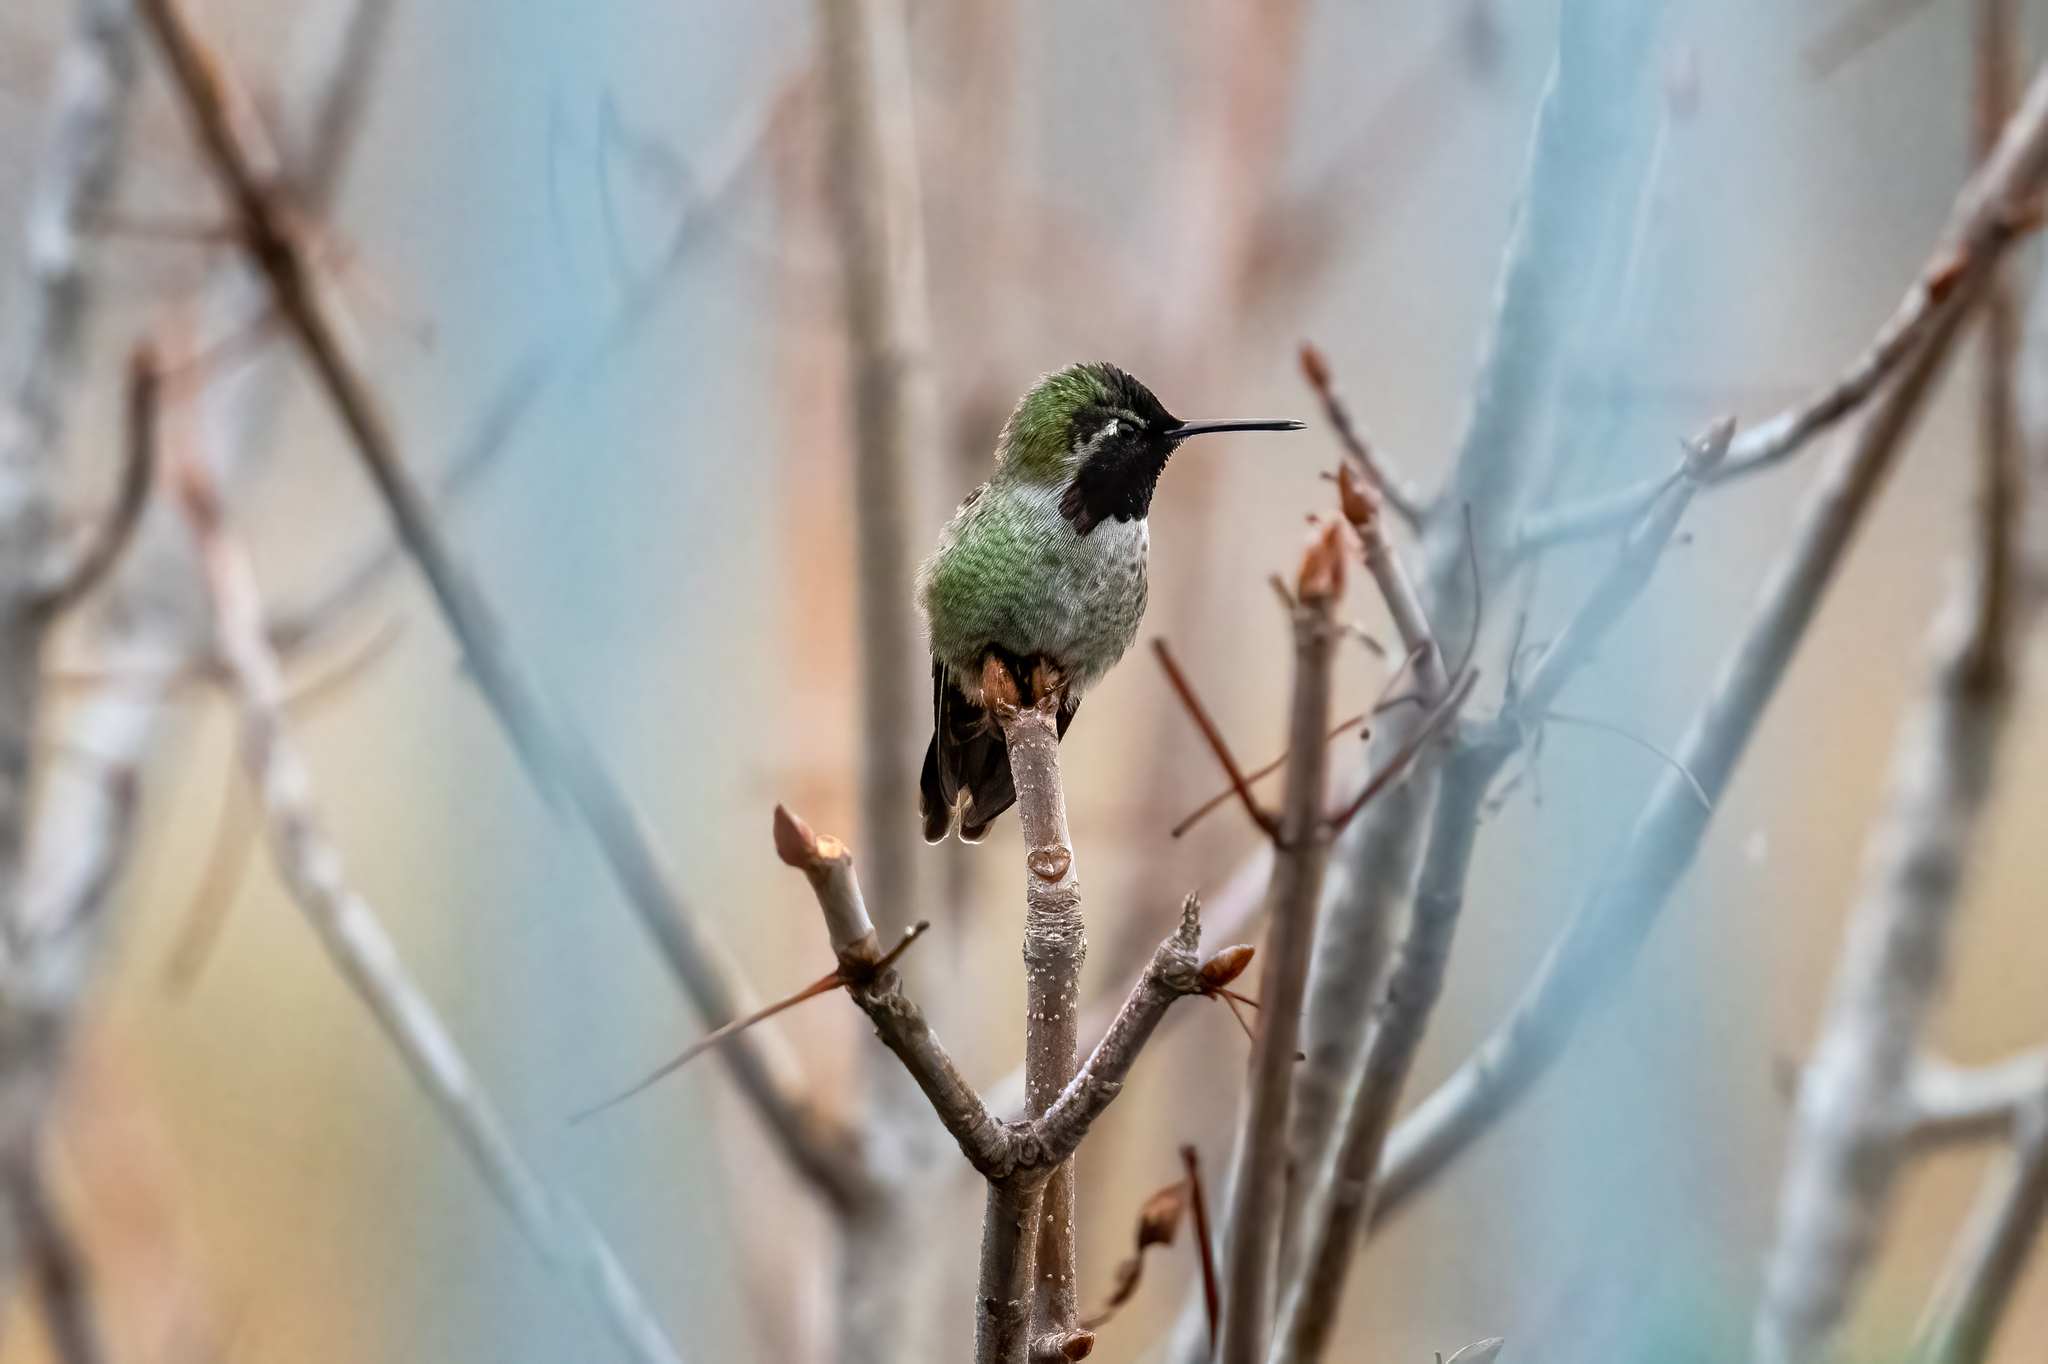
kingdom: Animalia
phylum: Chordata
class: Aves
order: Apodiformes
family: Trochilidae
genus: Calypte
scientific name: Calypte anna
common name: Anna's hummingbird
